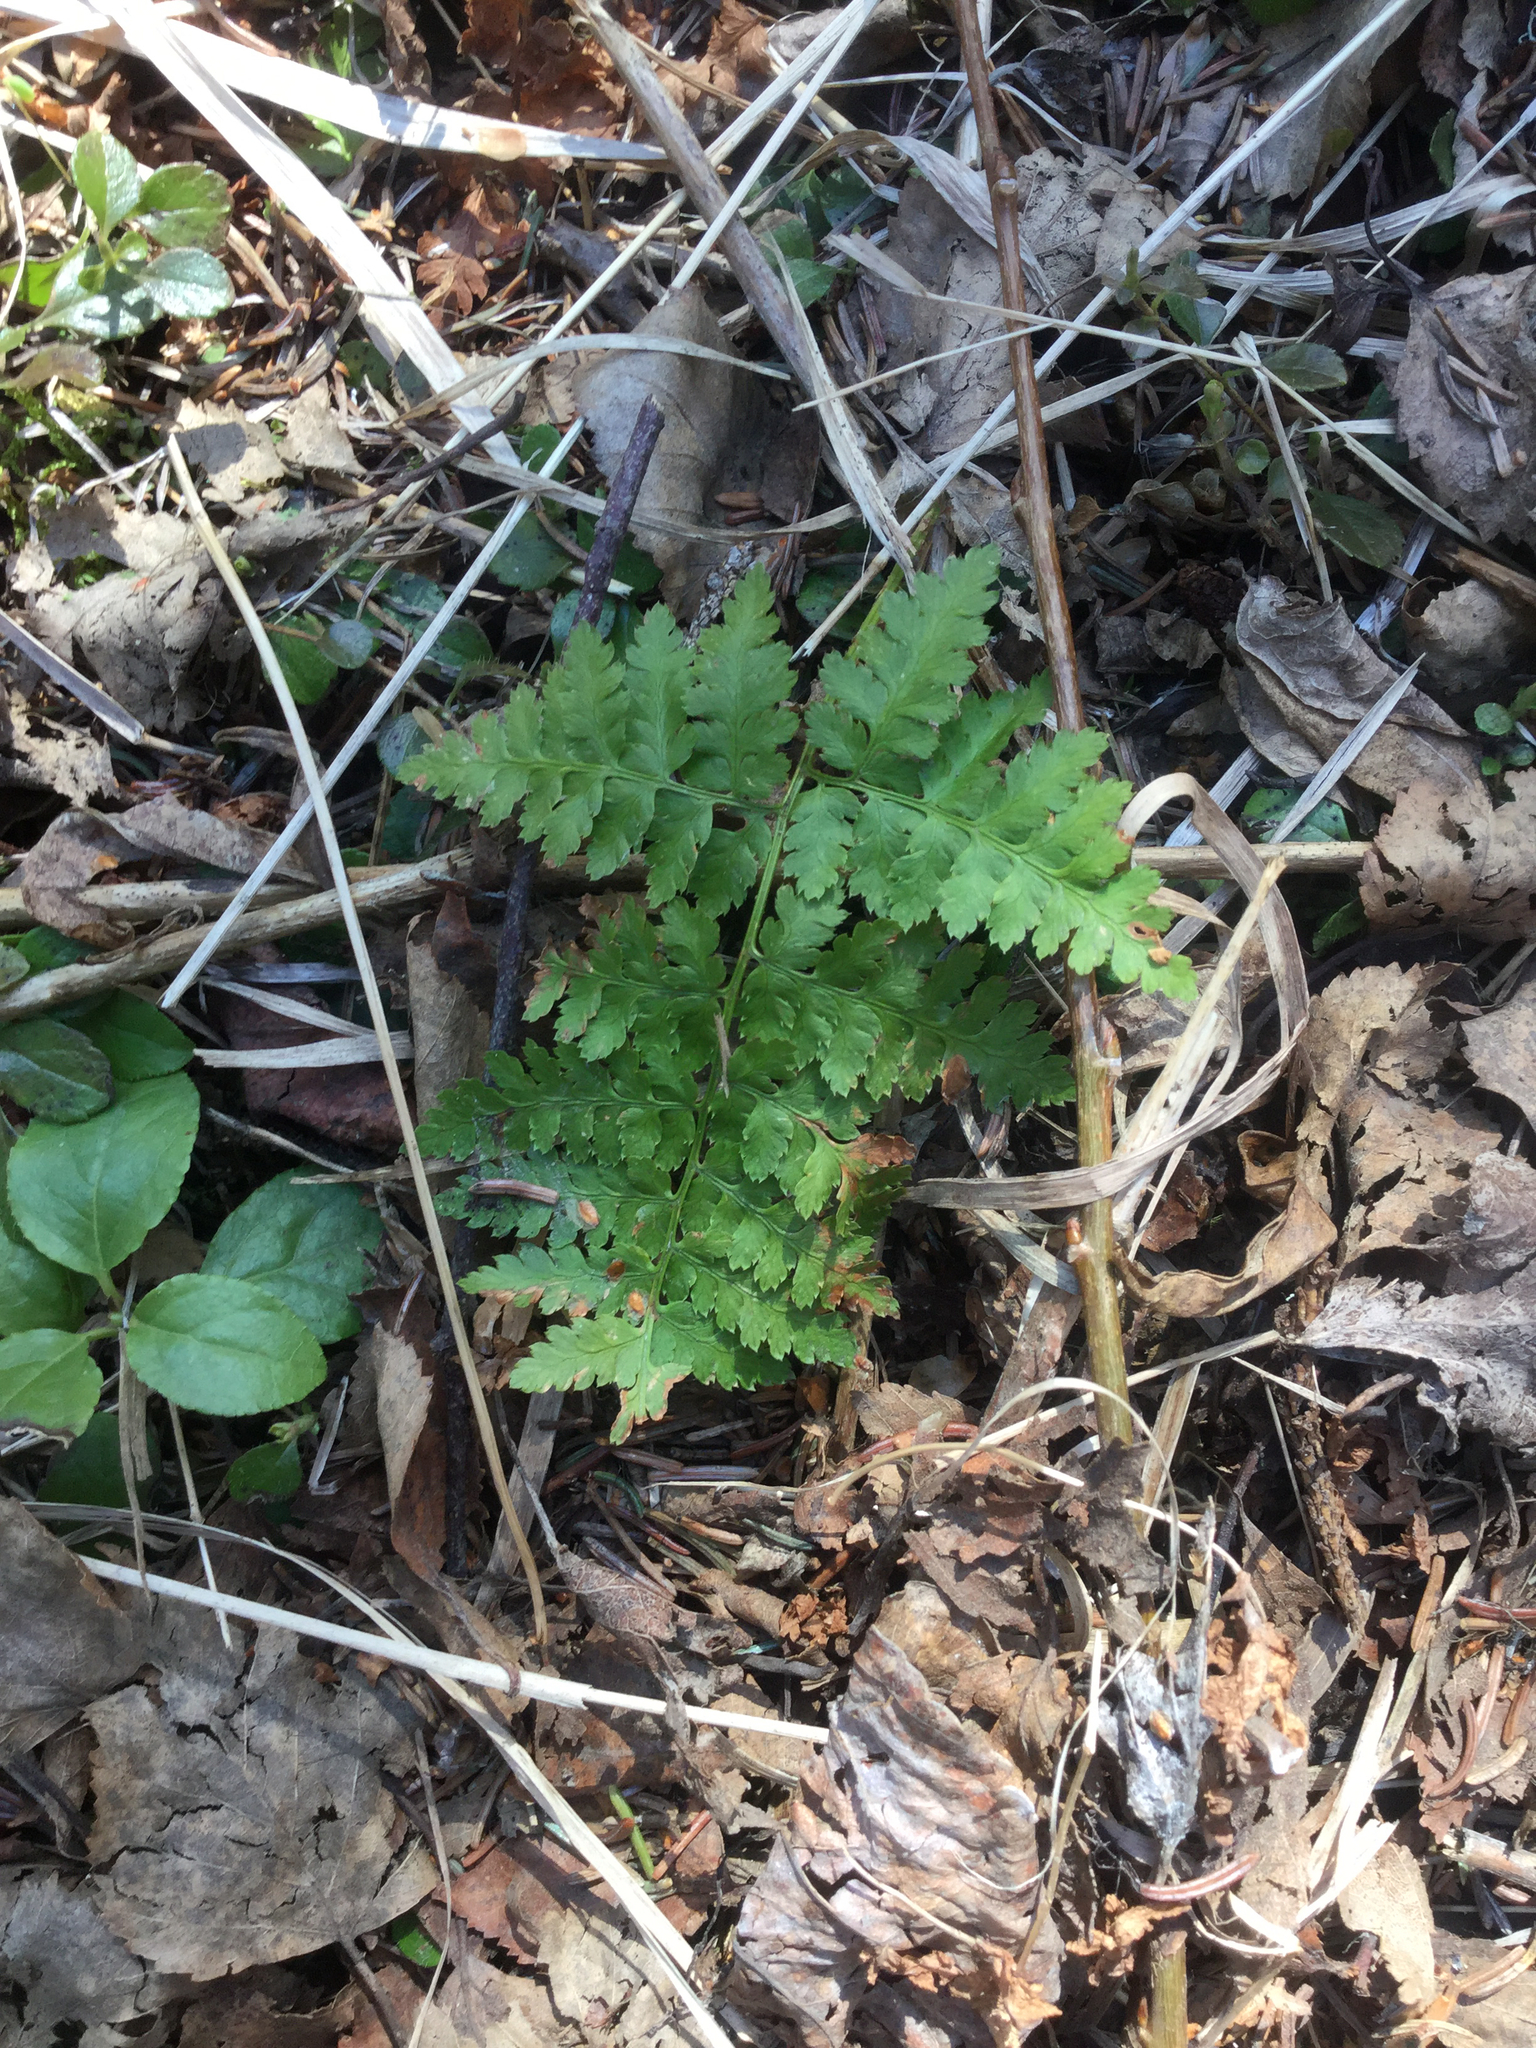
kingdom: Plantae
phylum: Tracheophyta
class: Polypodiopsida
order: Polypodiales
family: Dryopteridaceae
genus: Dryopteris
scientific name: Dryopteris expansa
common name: Northern buckler fern
